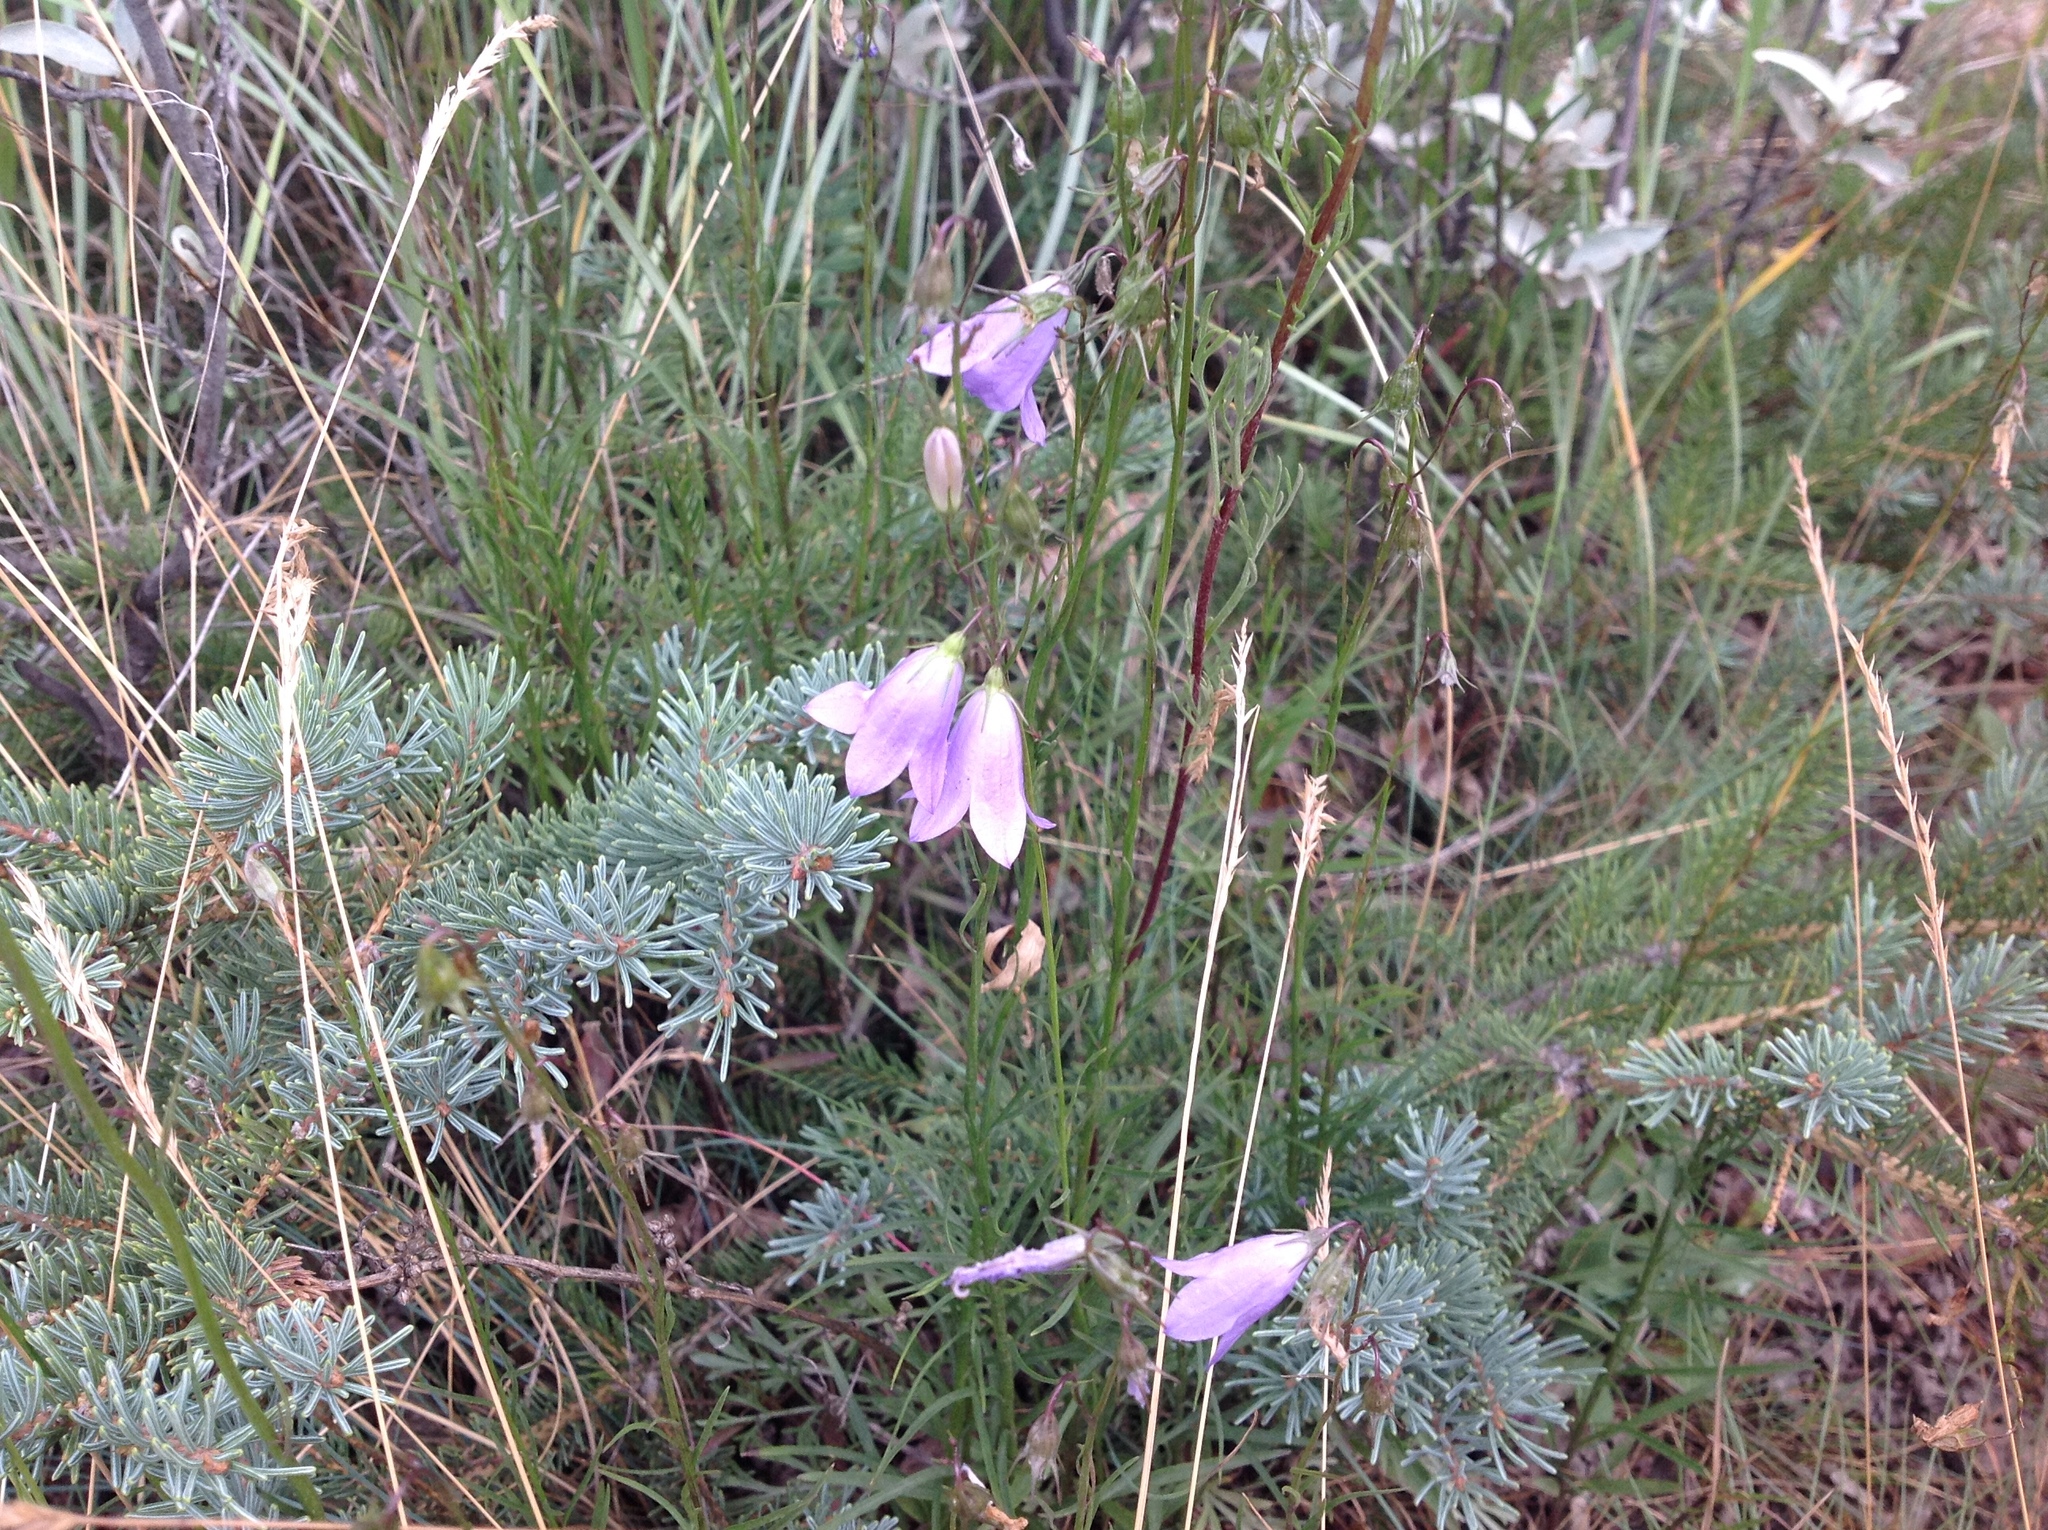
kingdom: Plantae
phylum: Tracheophyta
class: Magnoliopsida
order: Asterales
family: Campanulaceae
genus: Campanula
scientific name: Campanula alaskana
